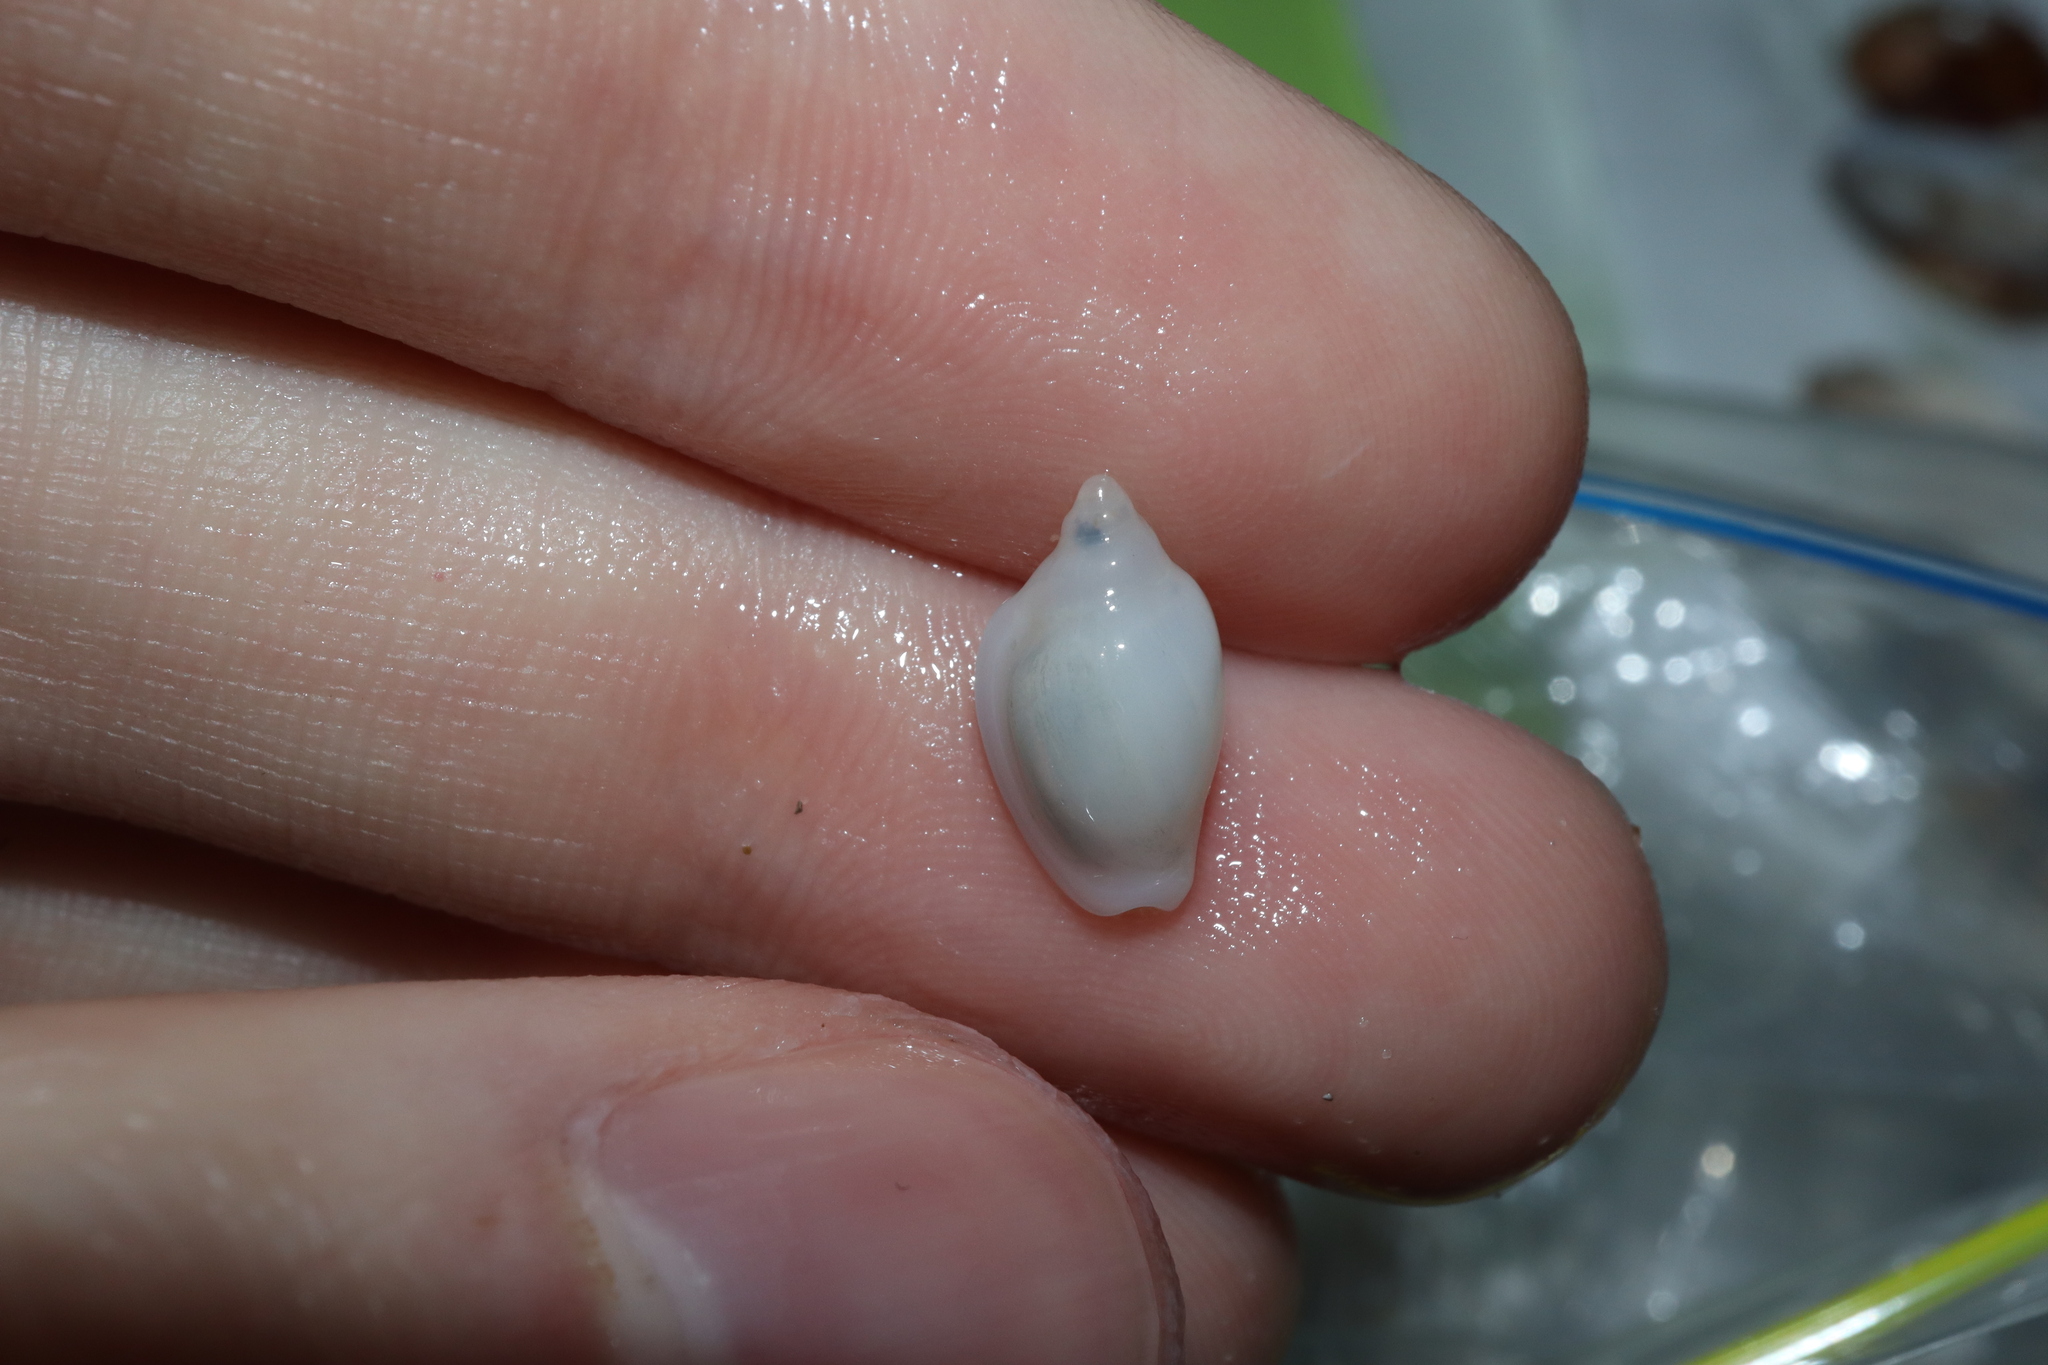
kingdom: Animalia
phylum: Mollusca
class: Gastropoda
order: Neogastropoda
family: Marginellidae
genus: Austroginella
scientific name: Austroginella muscaria
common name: Fly marginella
